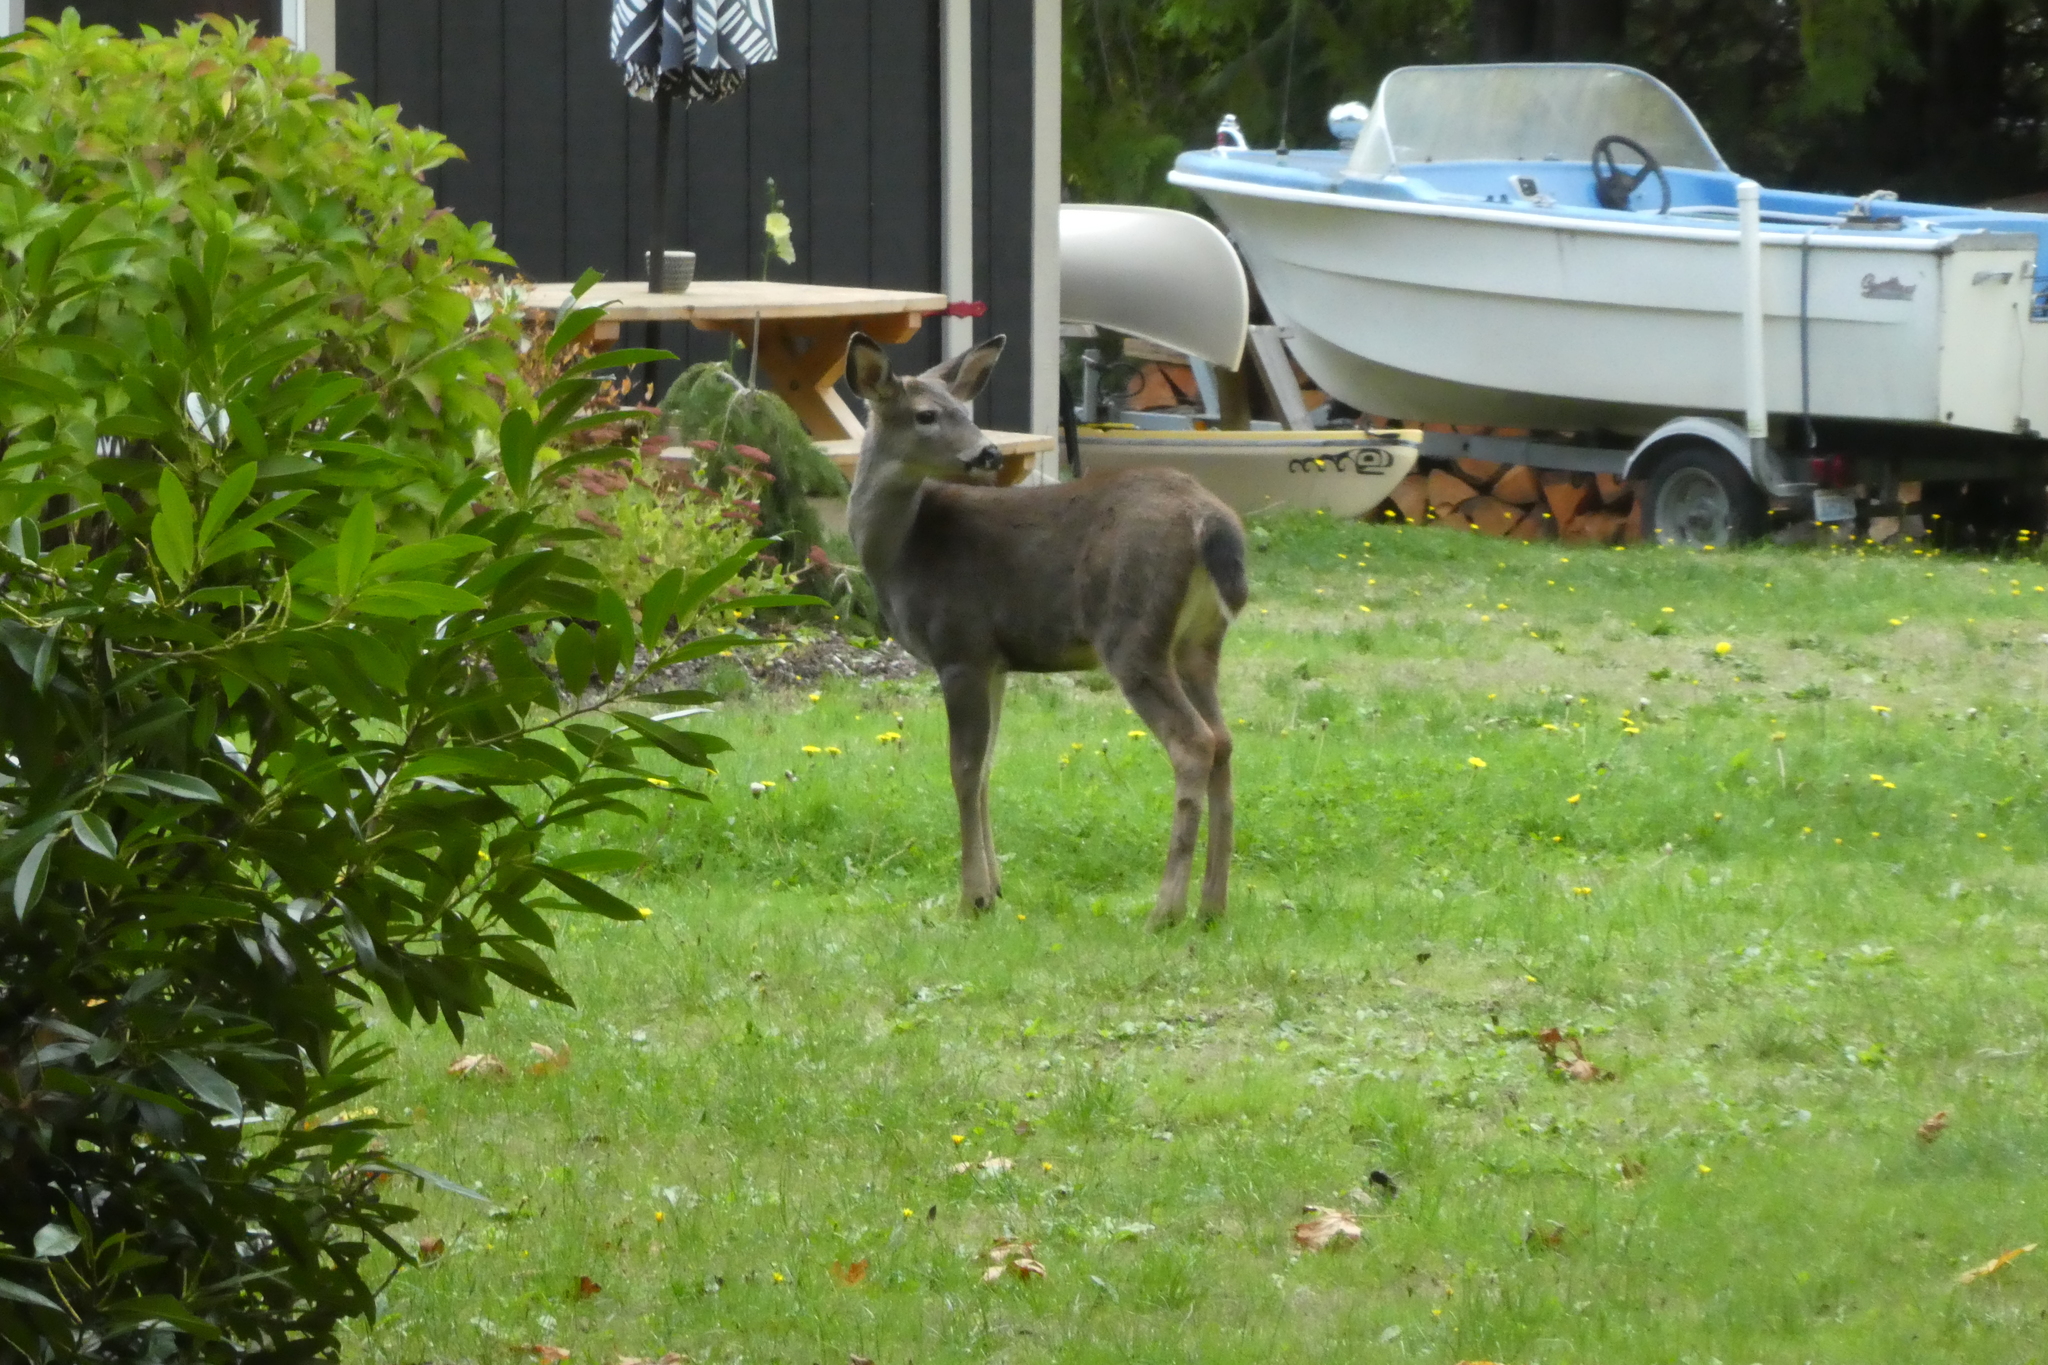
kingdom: Animalia
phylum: Chordata
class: Mammalia
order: Artiodactyla
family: Cervidae
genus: Odocoileus
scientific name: Odocoileus hemionus
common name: Mule deer
